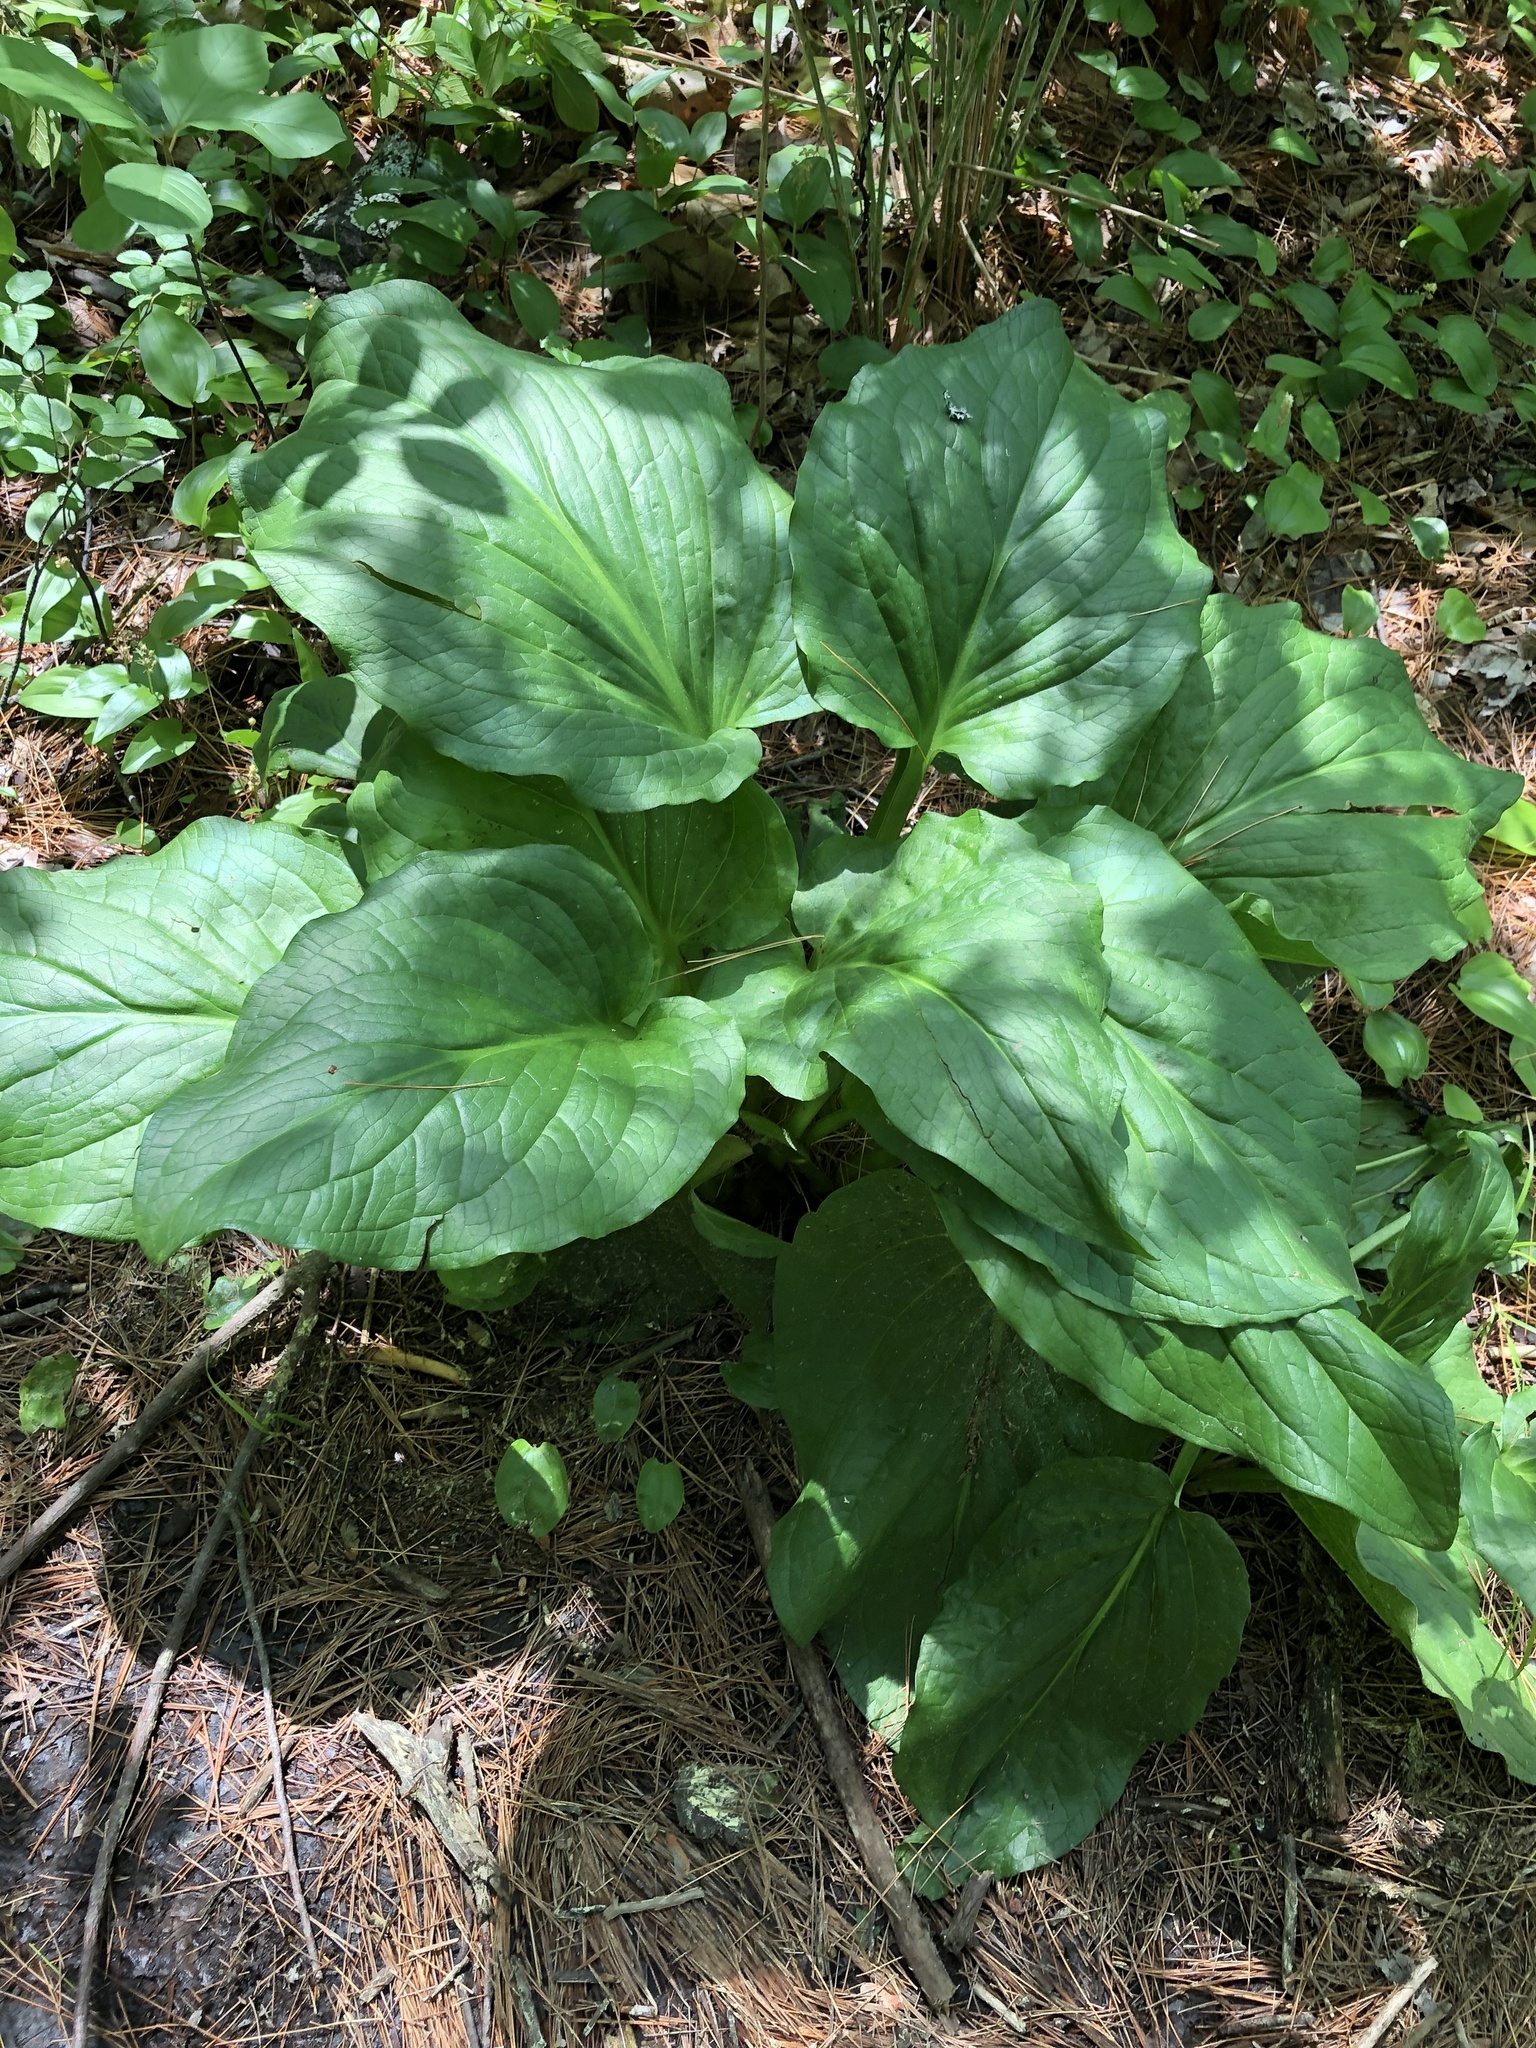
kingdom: Plantae
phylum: Tracheophyta
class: Liliopsida
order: Alismatales
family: Araceae
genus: Symplocarpus
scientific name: Symplocarpus foetidus
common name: Eastern skunk cabbage
